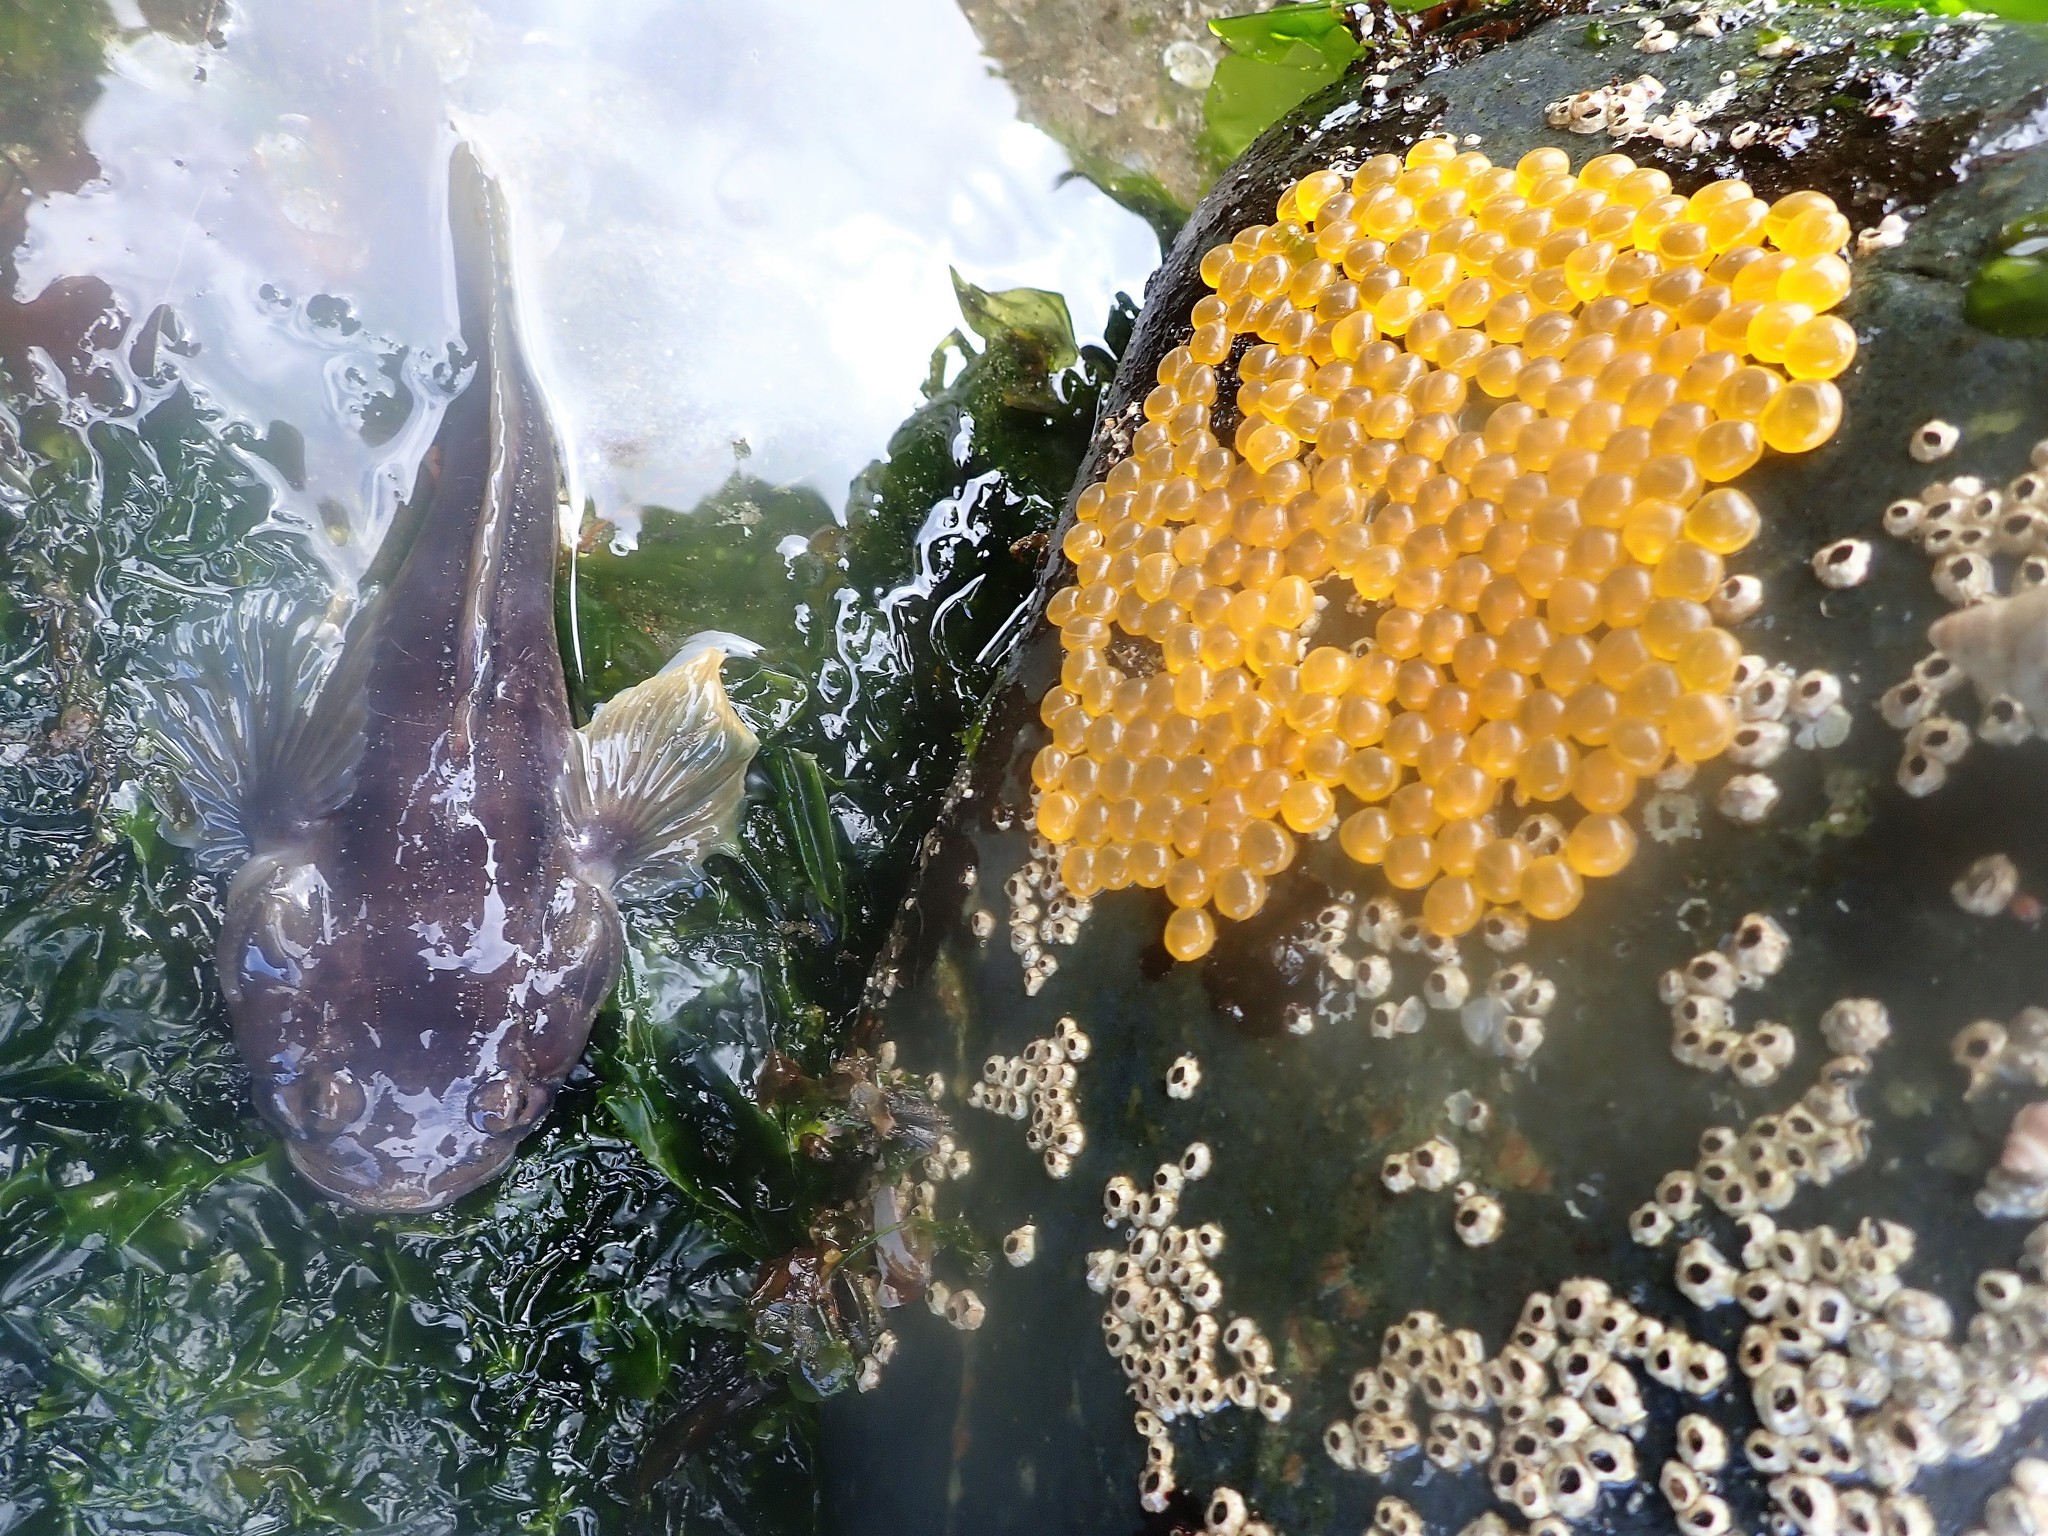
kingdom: Animalia
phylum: Chordata
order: Batrachoidiformes
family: Batrachoididae
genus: Porichthys
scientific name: Porichthys notatus
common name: Plainfin midshipman
